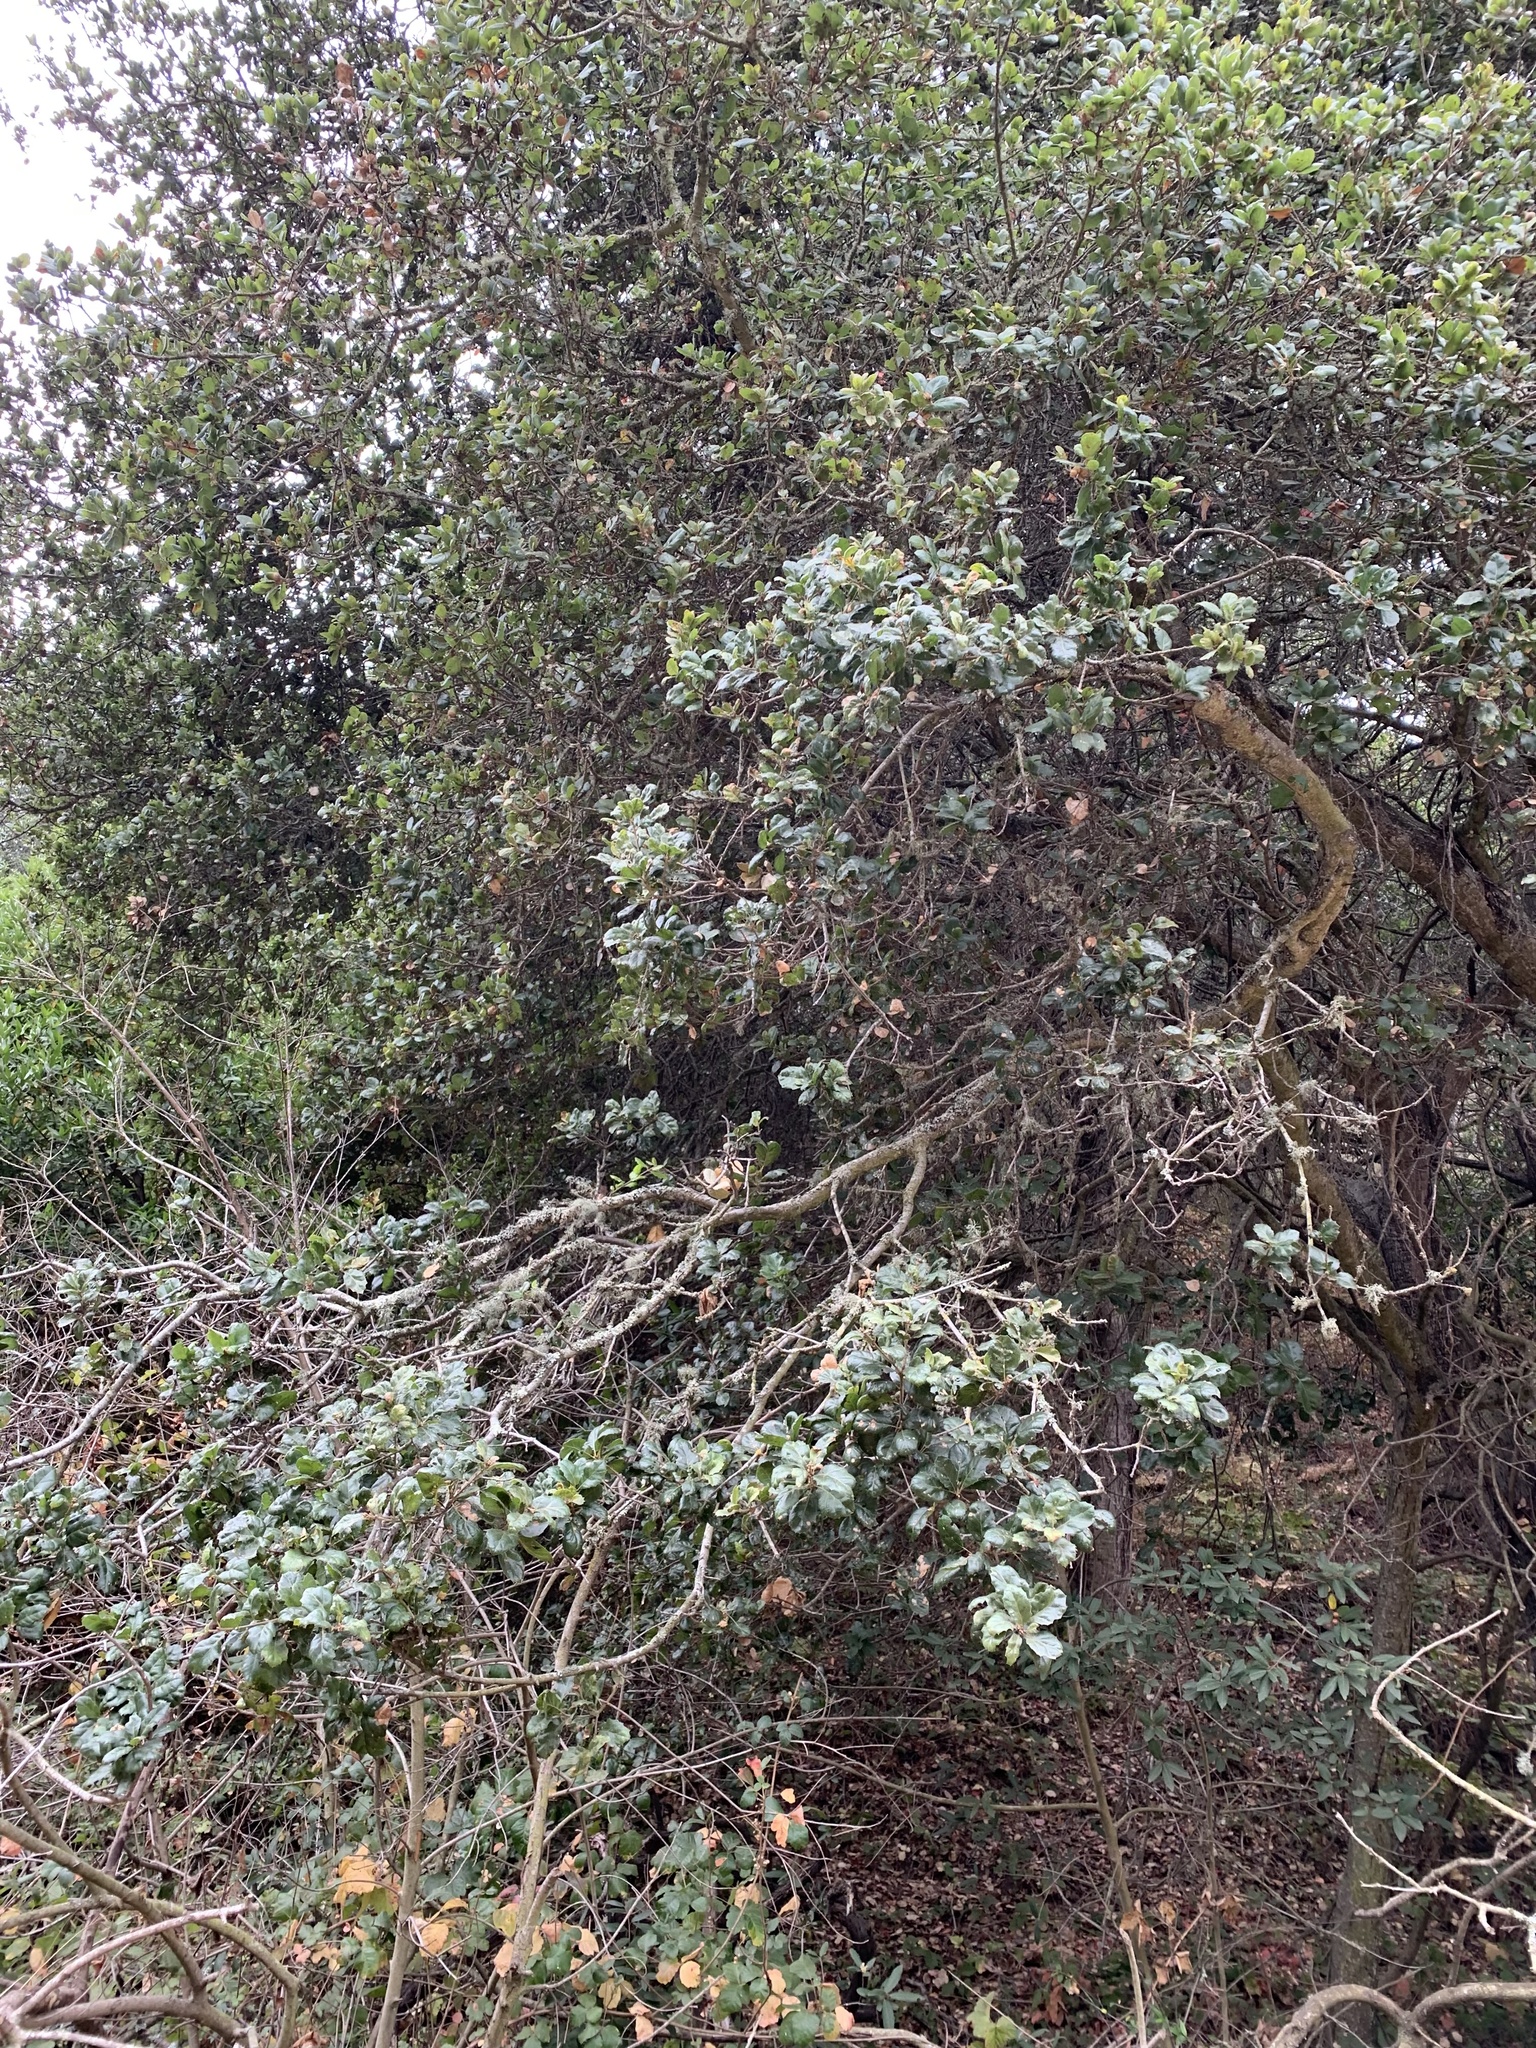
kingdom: Plantae
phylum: Tracheophyta
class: Magnoliopsida
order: Fagales
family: Fagaceae
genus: Quercus
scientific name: Quercus agrifolia
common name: California live oak
